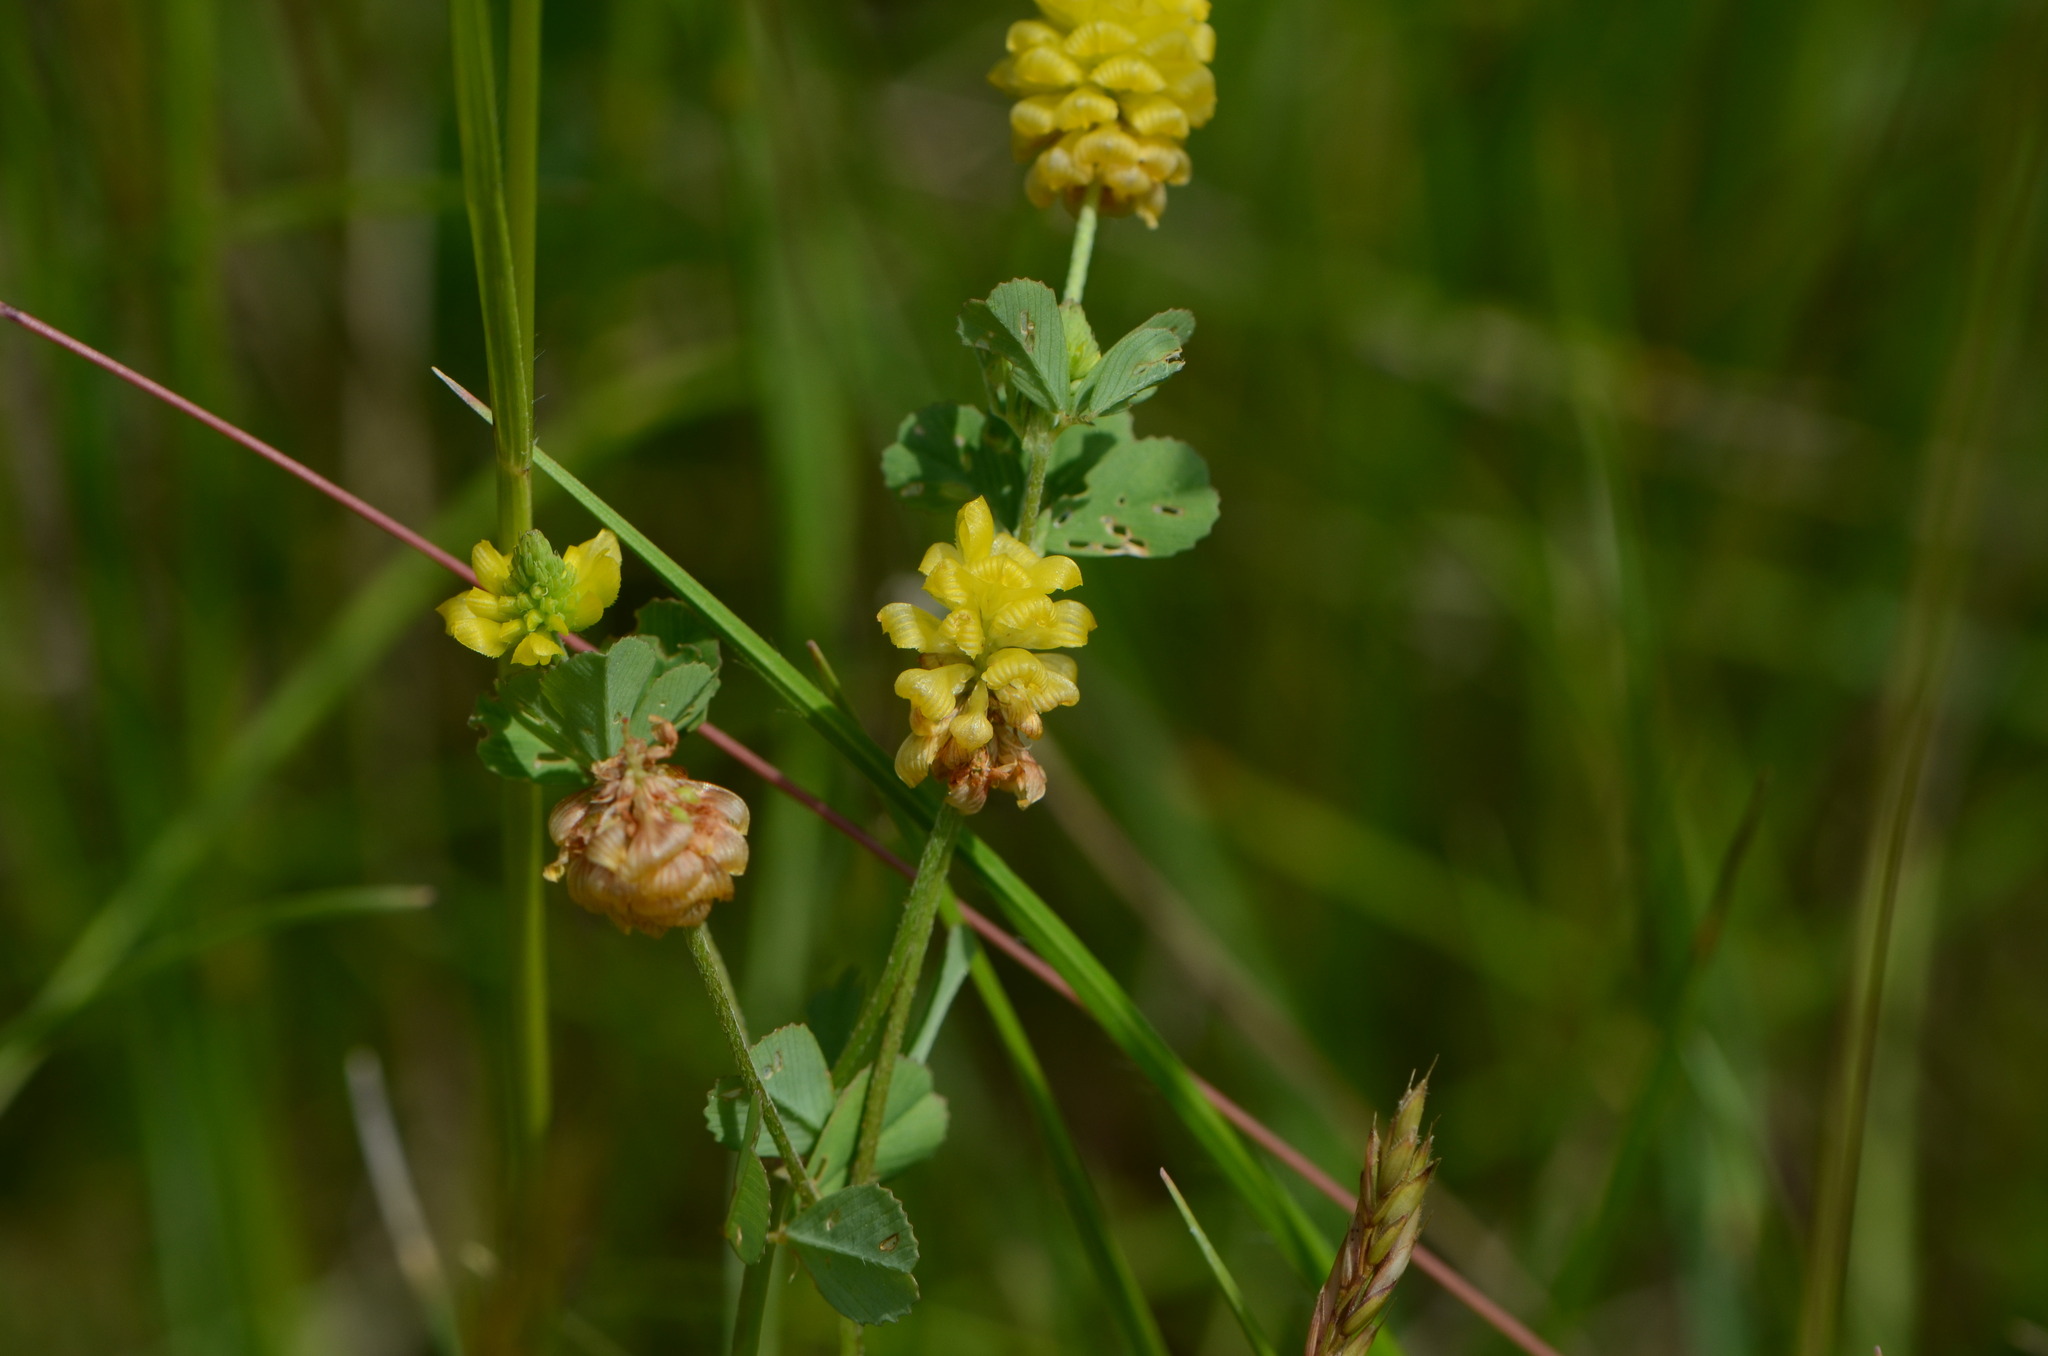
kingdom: Plantae
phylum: Tracheophyta
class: Magnoliopsida
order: Fabales
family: Fabaceae
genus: Trifolium
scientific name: Trifolium campestre
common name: Field clover
